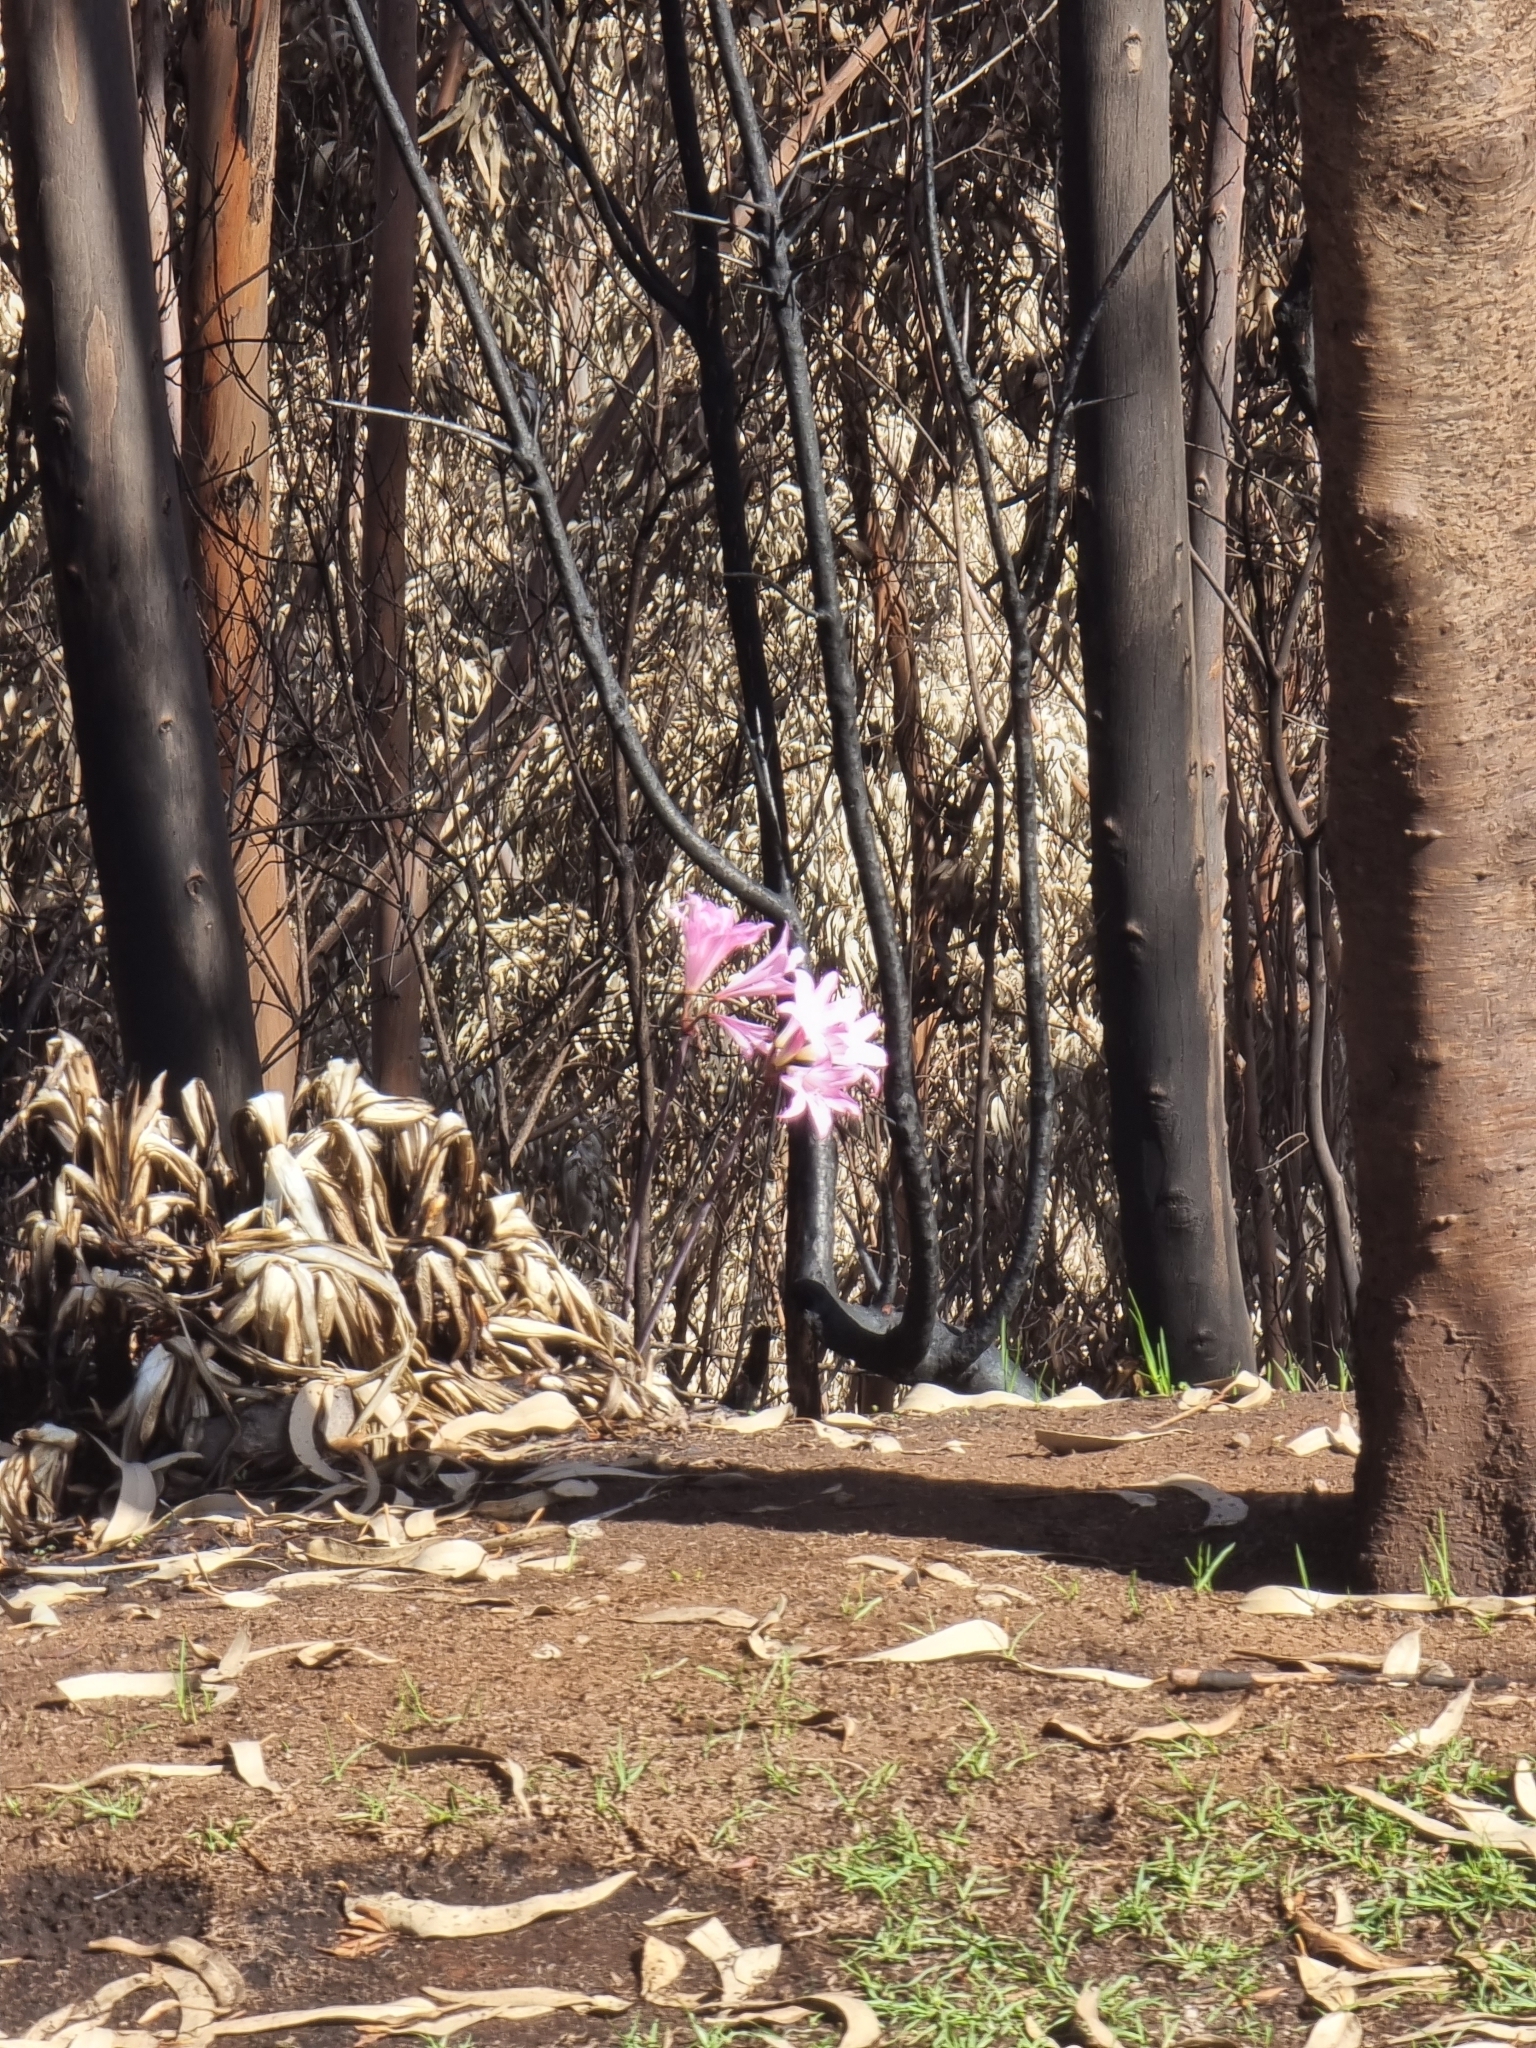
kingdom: Plantae
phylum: Tracheophyta
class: Liliopsida
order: Asparagales
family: Amaryllidaceae
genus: Amaryllis
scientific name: Amaryllis belladonna
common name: Jersey lily
